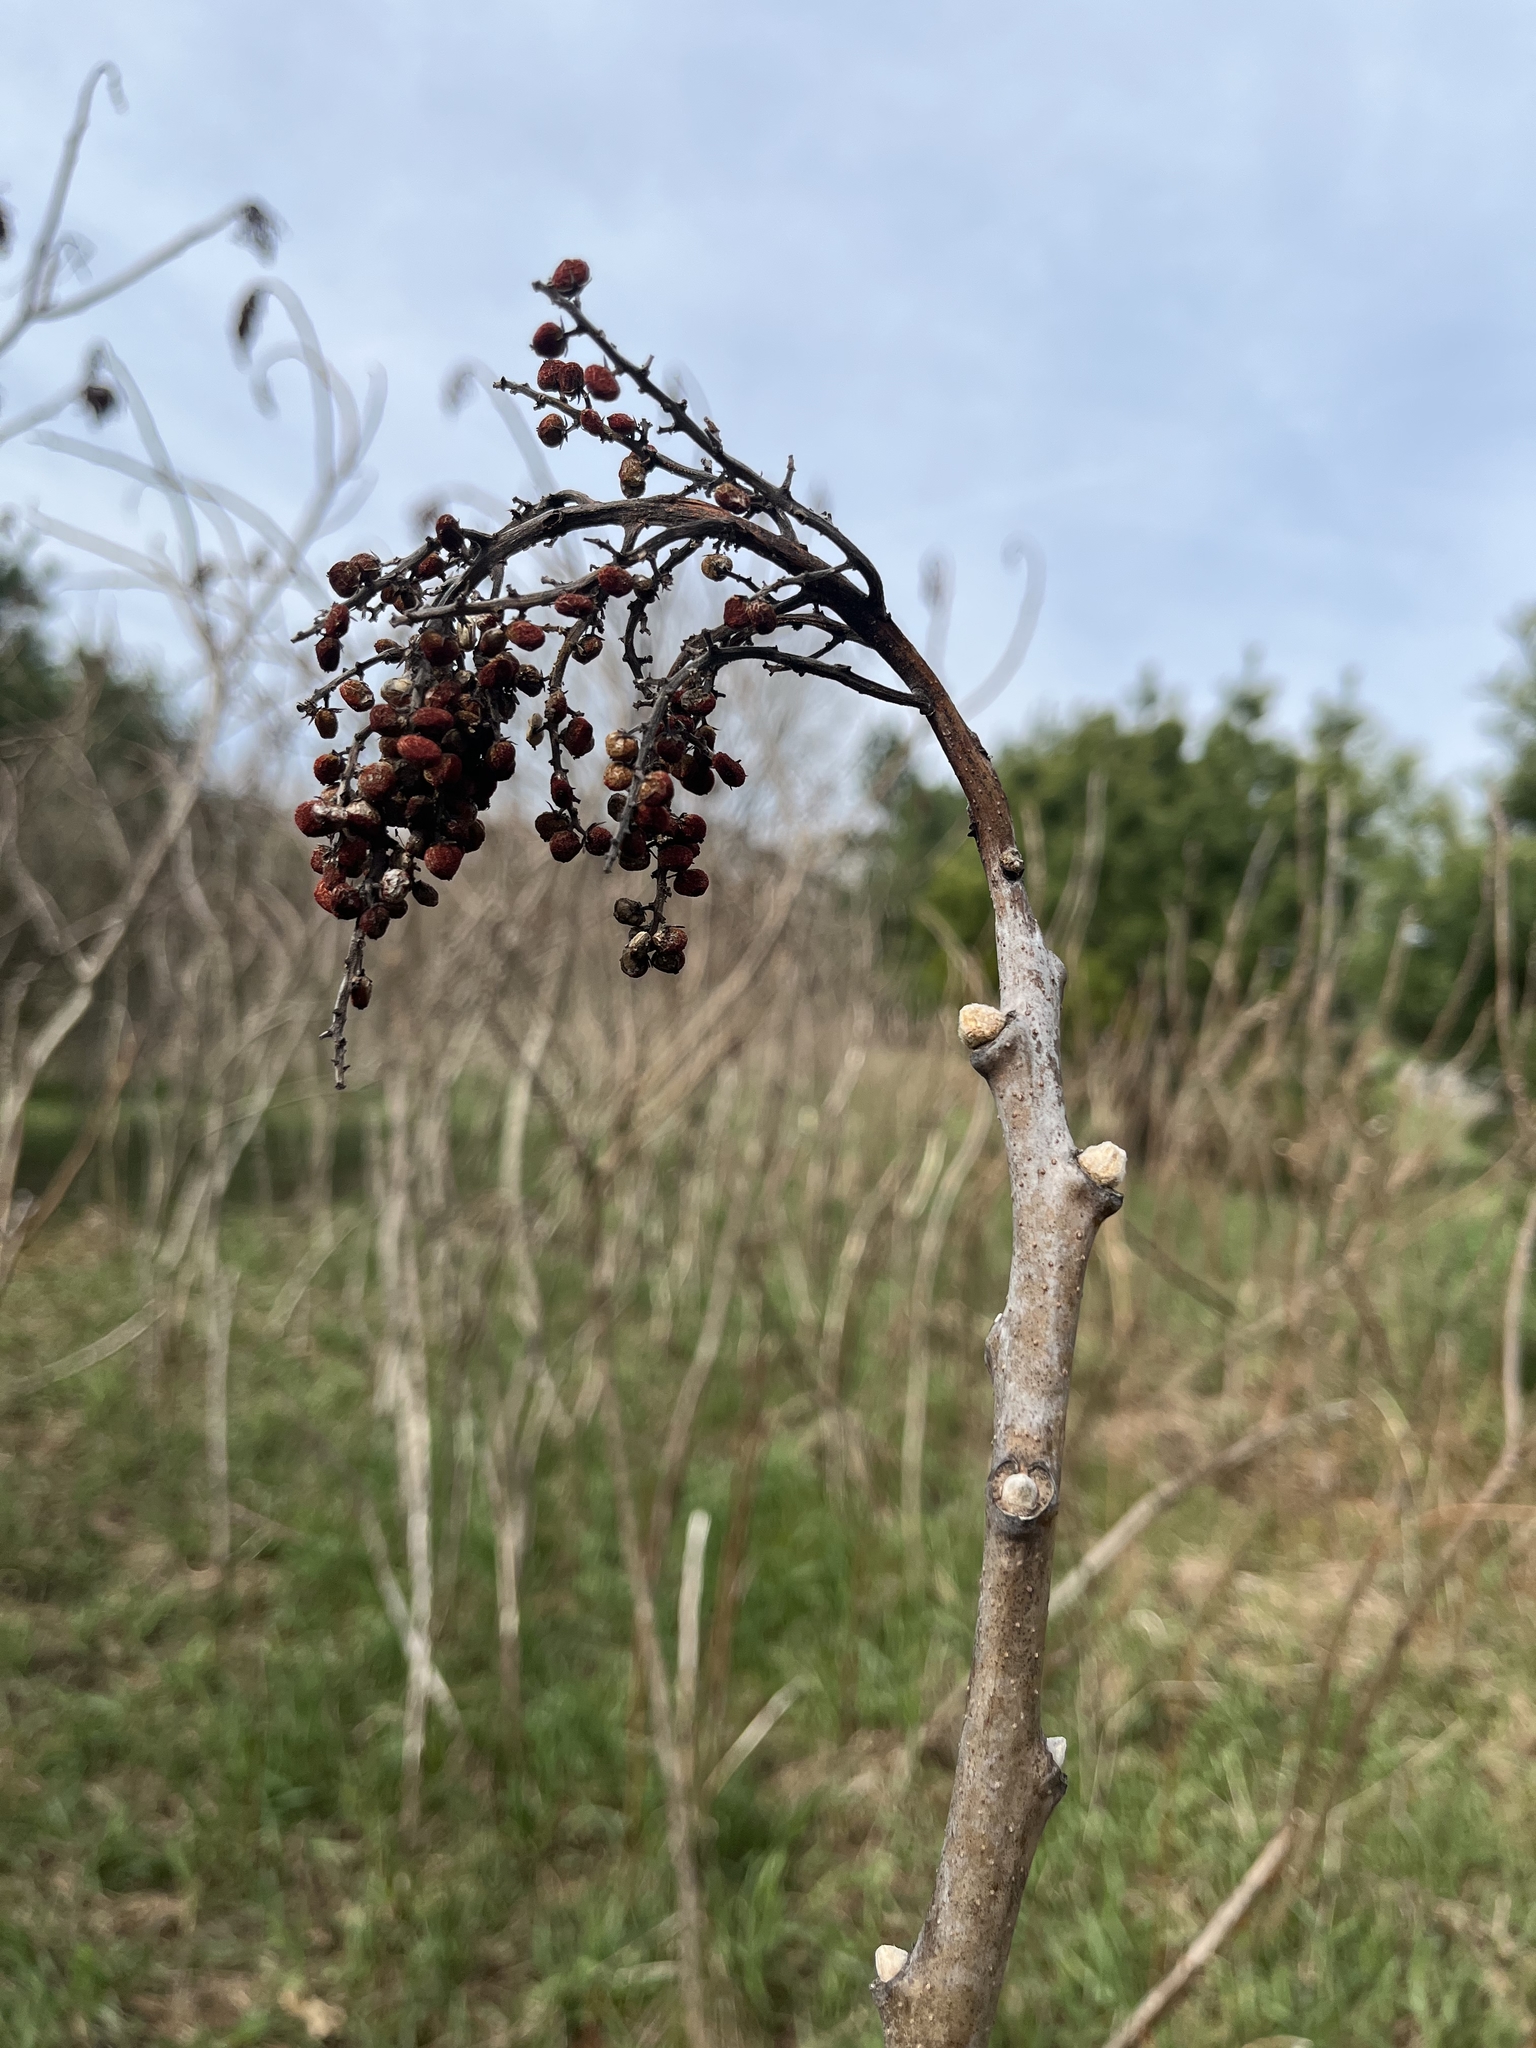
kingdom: Plantae
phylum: Tracheophyta
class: Magnoliopsida
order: Sapindales
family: Anacardiaceae
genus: Rhus
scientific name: Rhus glabra
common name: Scarlet sumac
